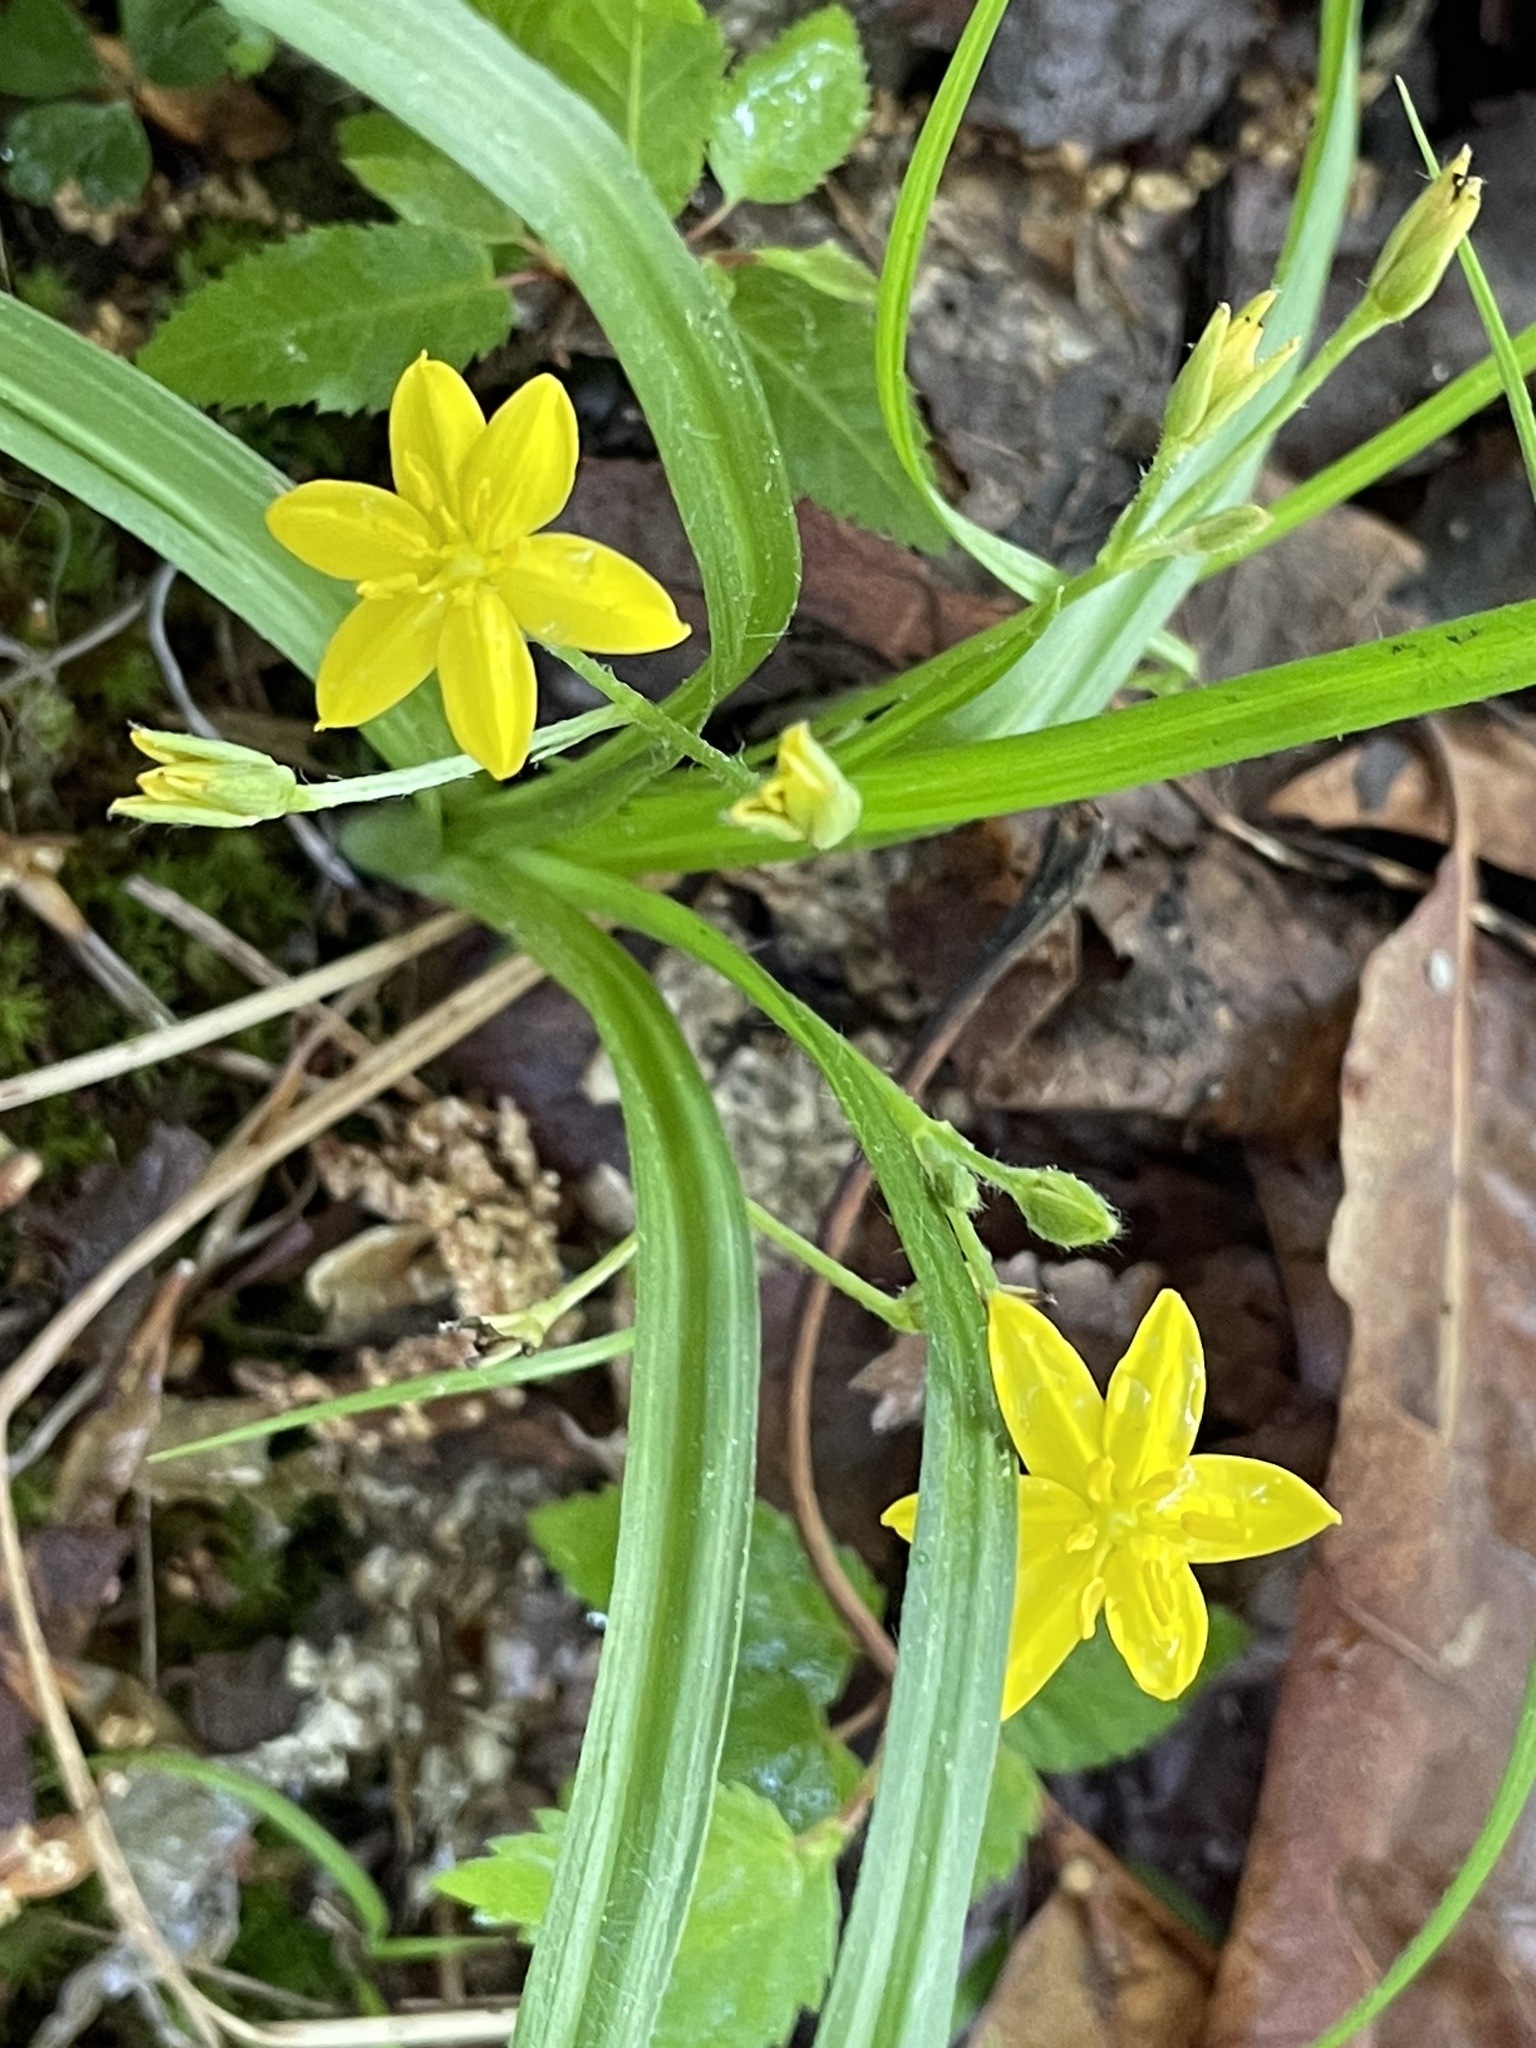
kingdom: Plantae
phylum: Tracheophyta
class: Liliopsida
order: Asparagales
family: Hypoxidaceae
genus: Hypoxis
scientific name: Hypoxis hirsuta
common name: Common goldstar
